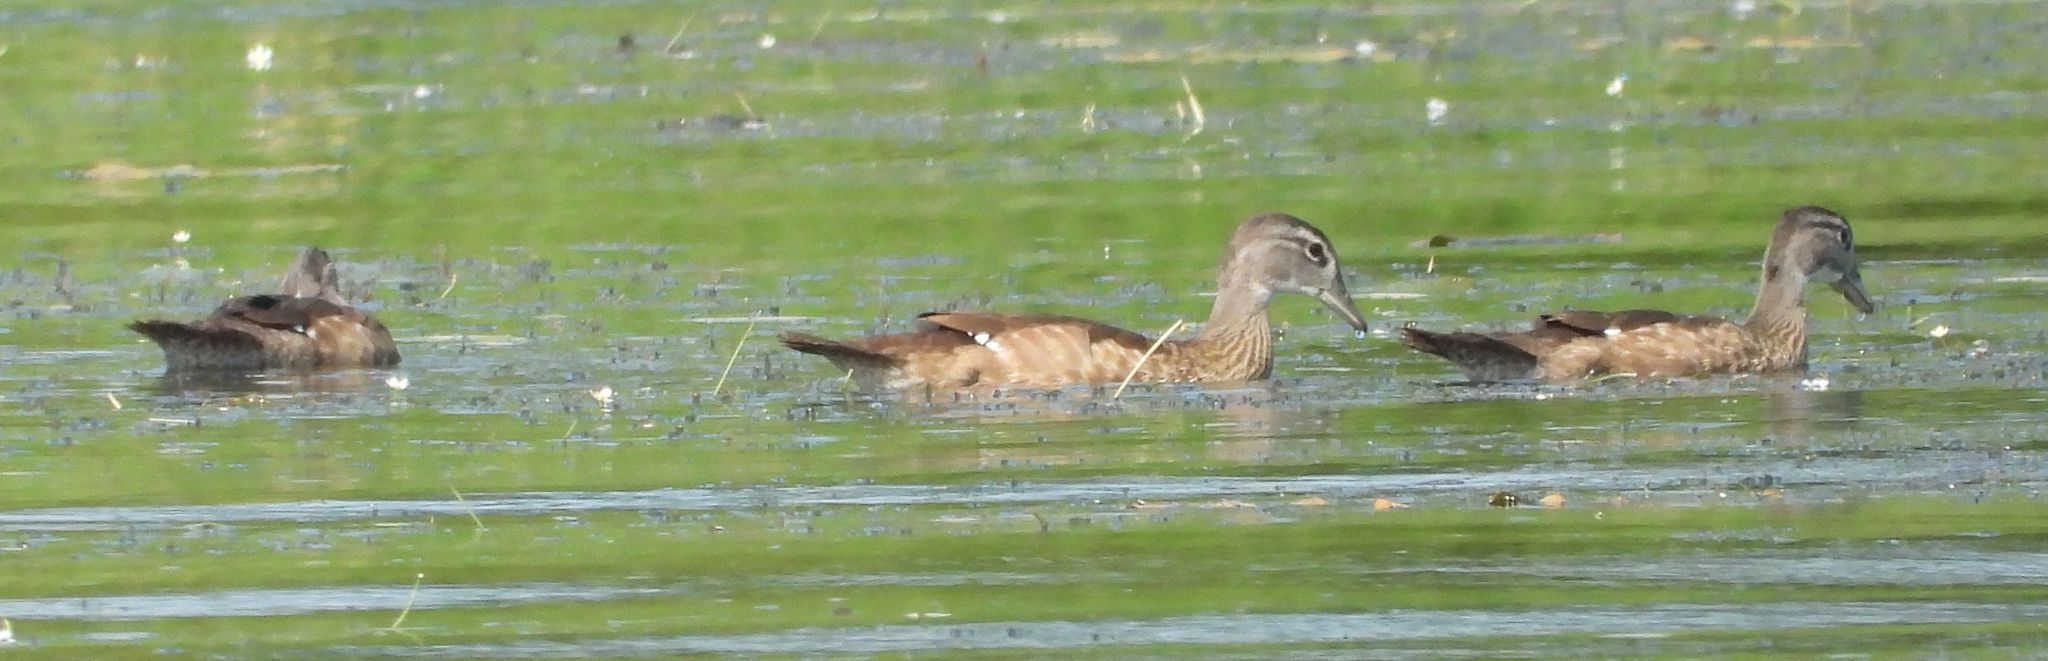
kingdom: Animalia
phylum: Chordata
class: Aves
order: Anseriformes
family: Anatidae
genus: Aix
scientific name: Aix sponsa
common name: Wood duck
